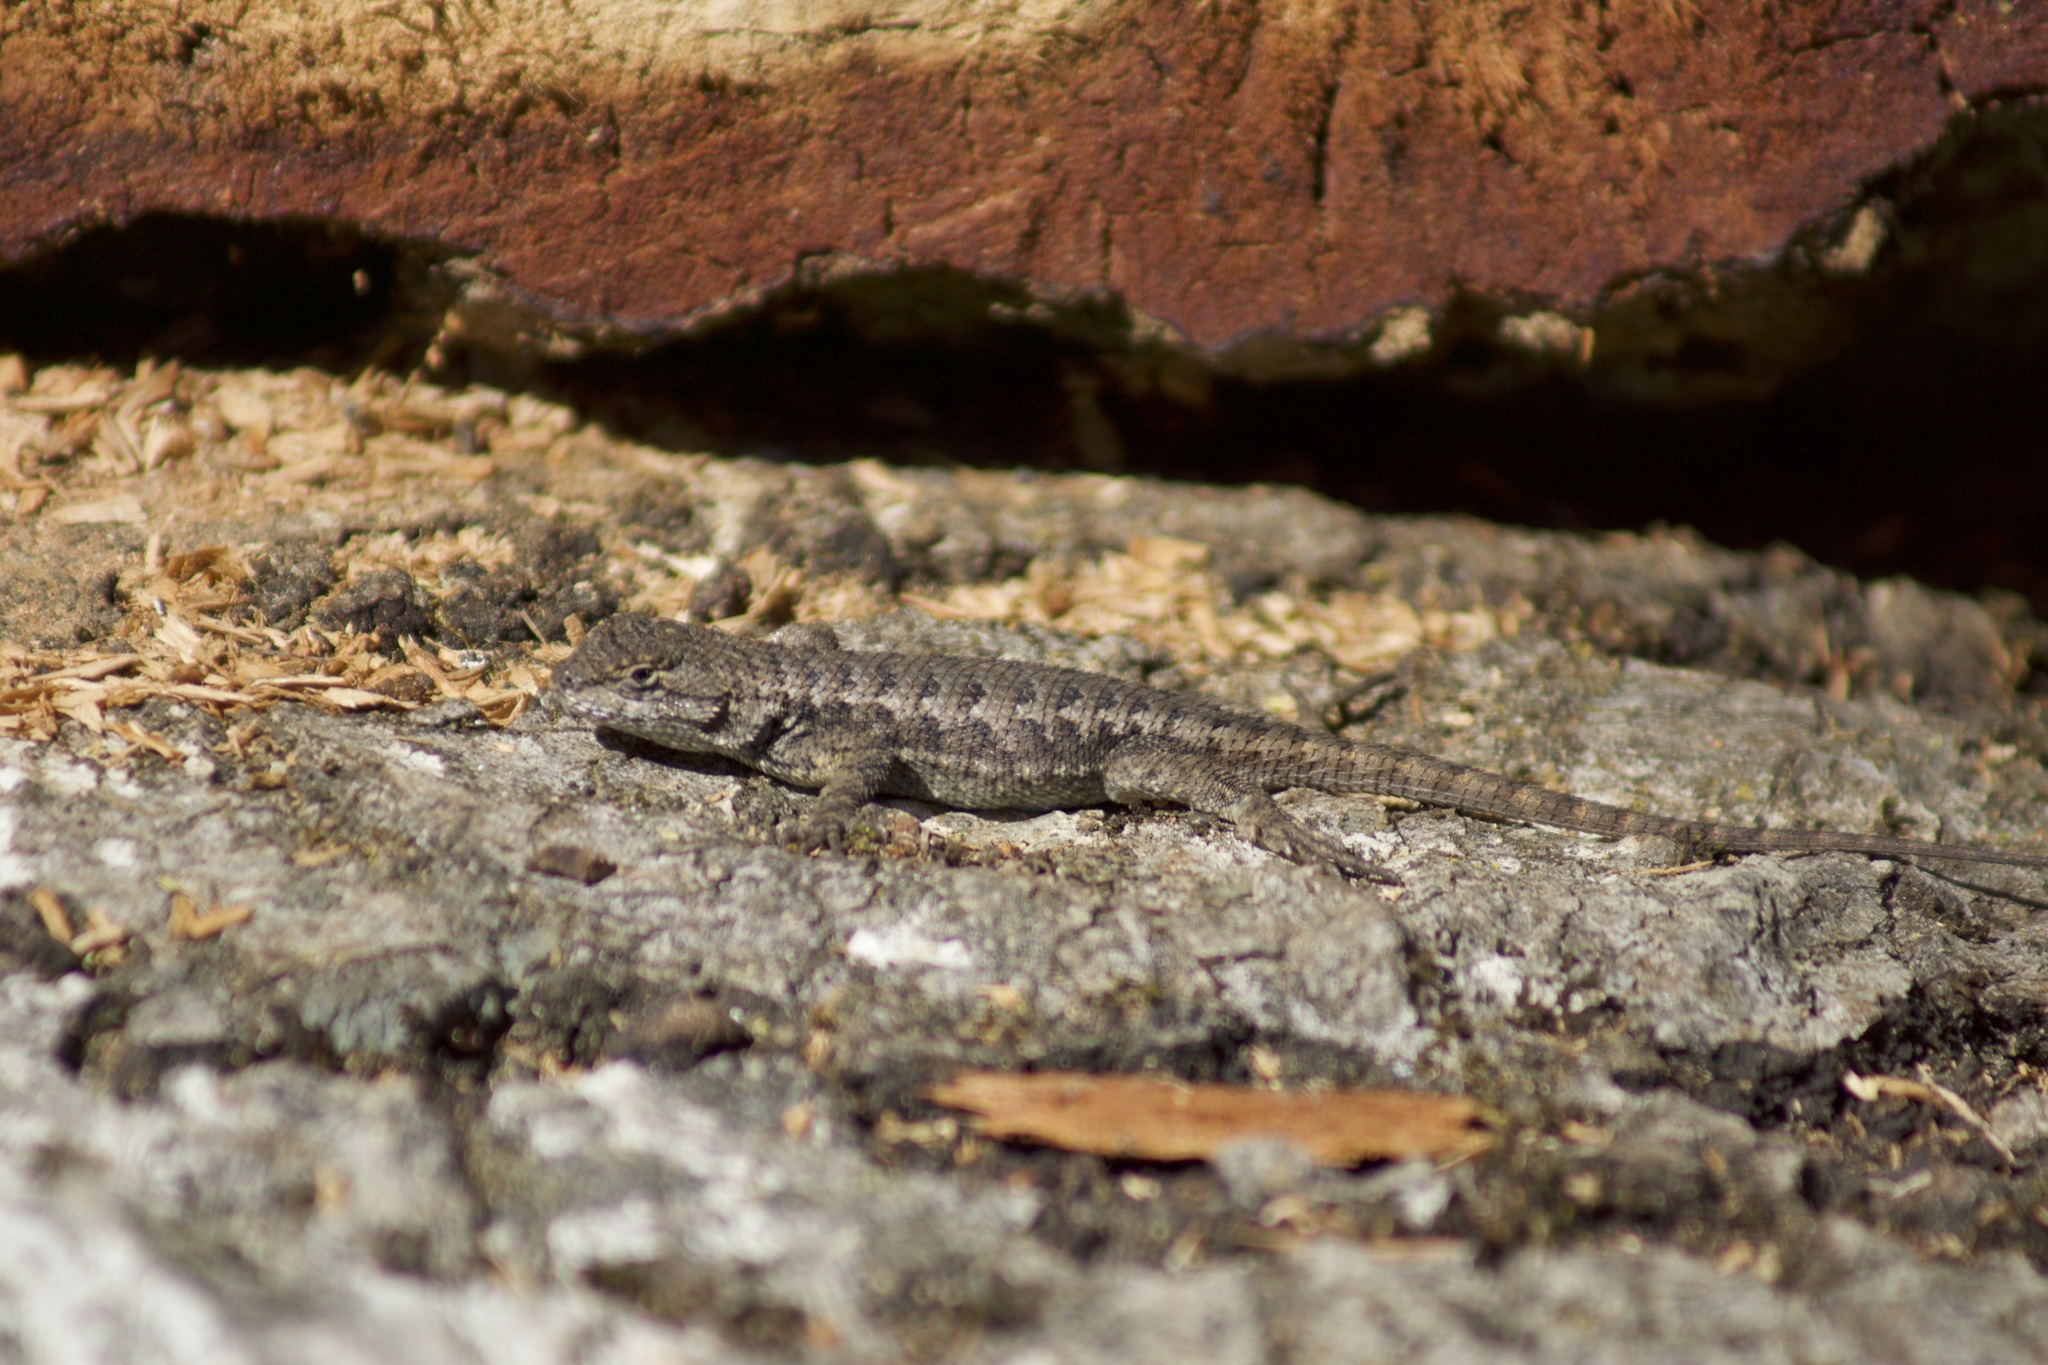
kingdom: Animalia
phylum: Chordata
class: Squamata
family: Phrynosomatidae
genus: Sceloporus
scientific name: Sceloporus occidentalis
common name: Western fence lizard
